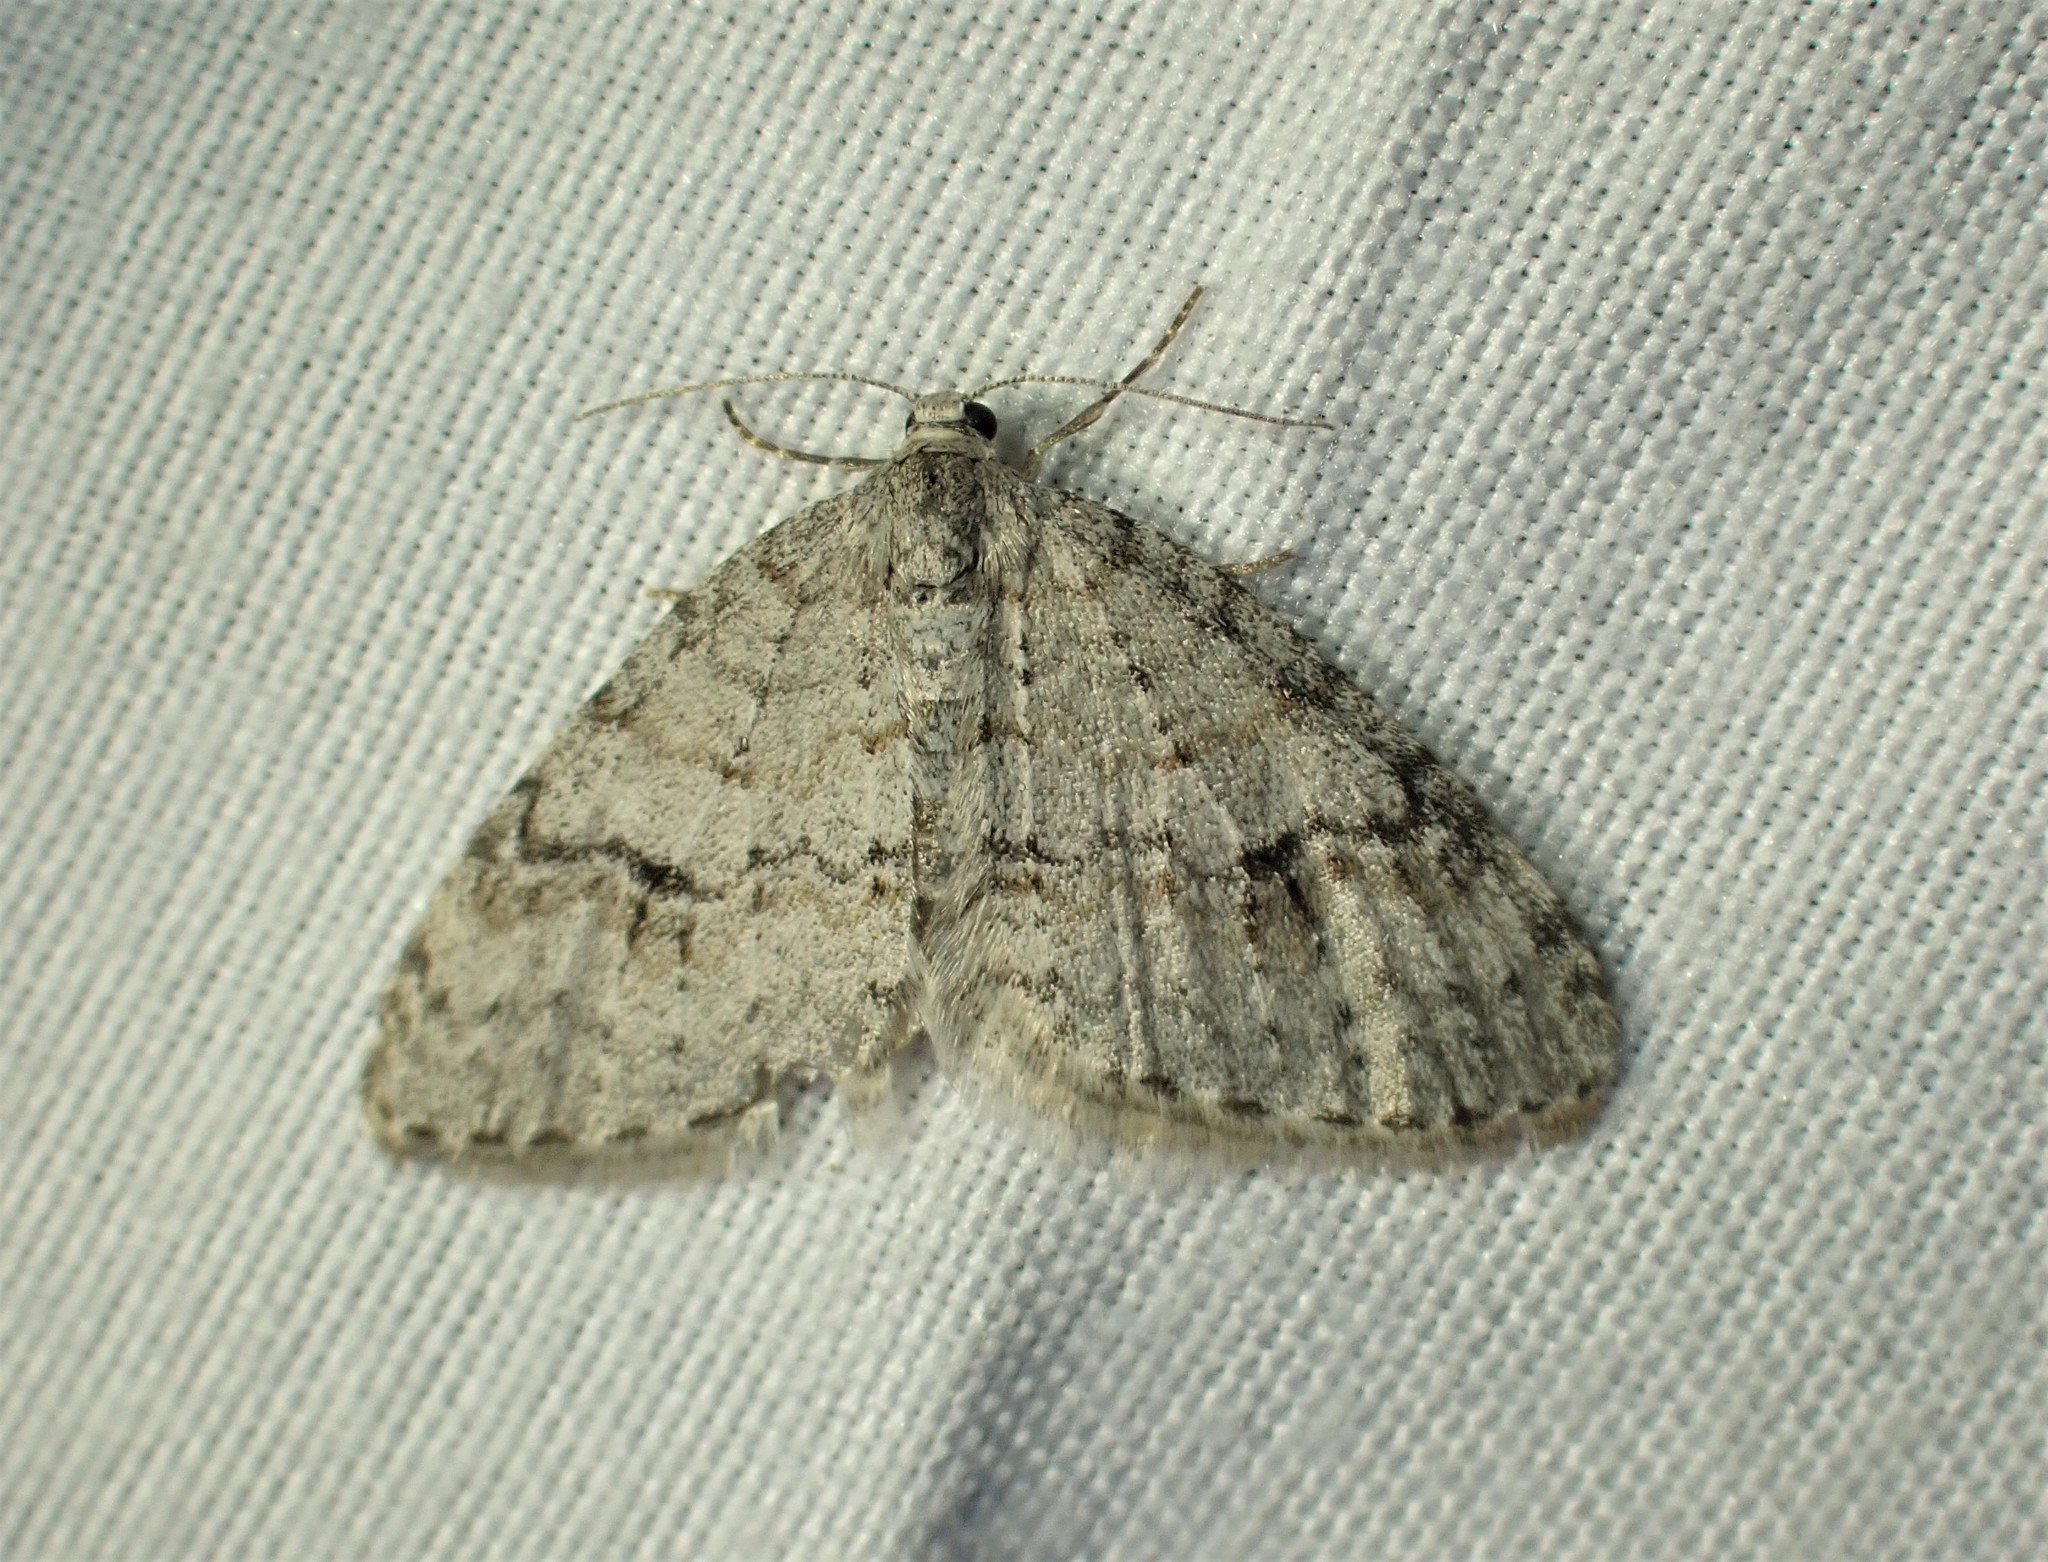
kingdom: Animalia
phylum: Arthropoda
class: Insecta
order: Lepidoptera
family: Geometridae
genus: Venusia
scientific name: Venusia comptaria
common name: Brown-shaded carpet
